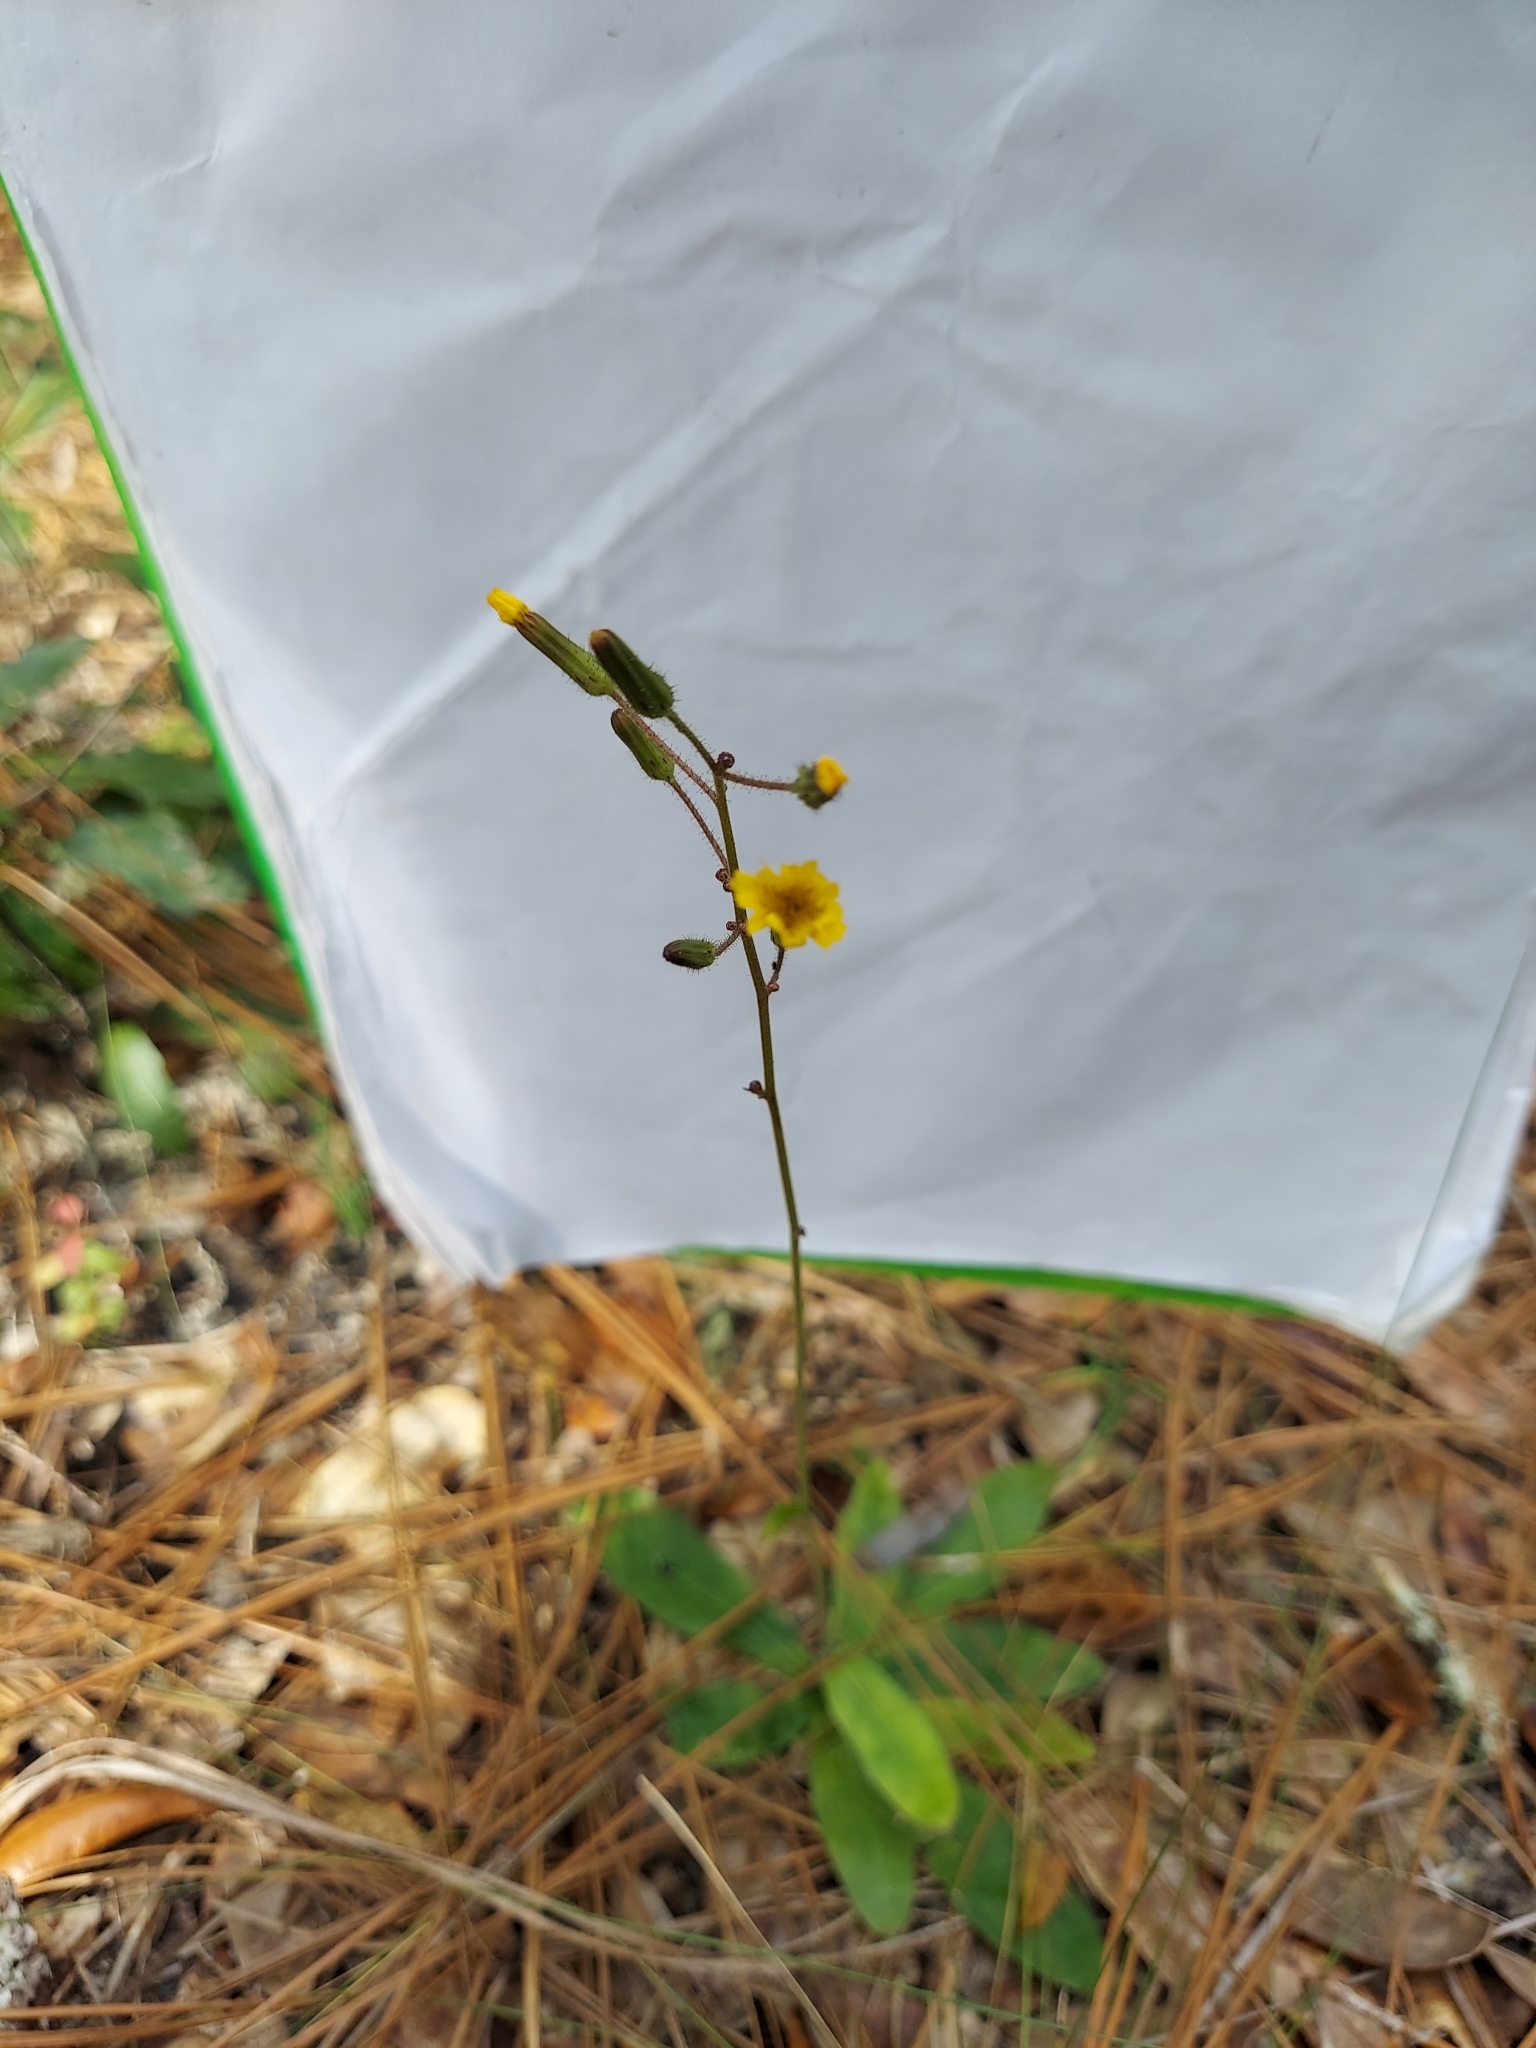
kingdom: Plantae
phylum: Tracheophyta
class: Magnoliopsida
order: Asterales
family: Asteraceae
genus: Hieracium
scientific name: Hieracium megacephalum
